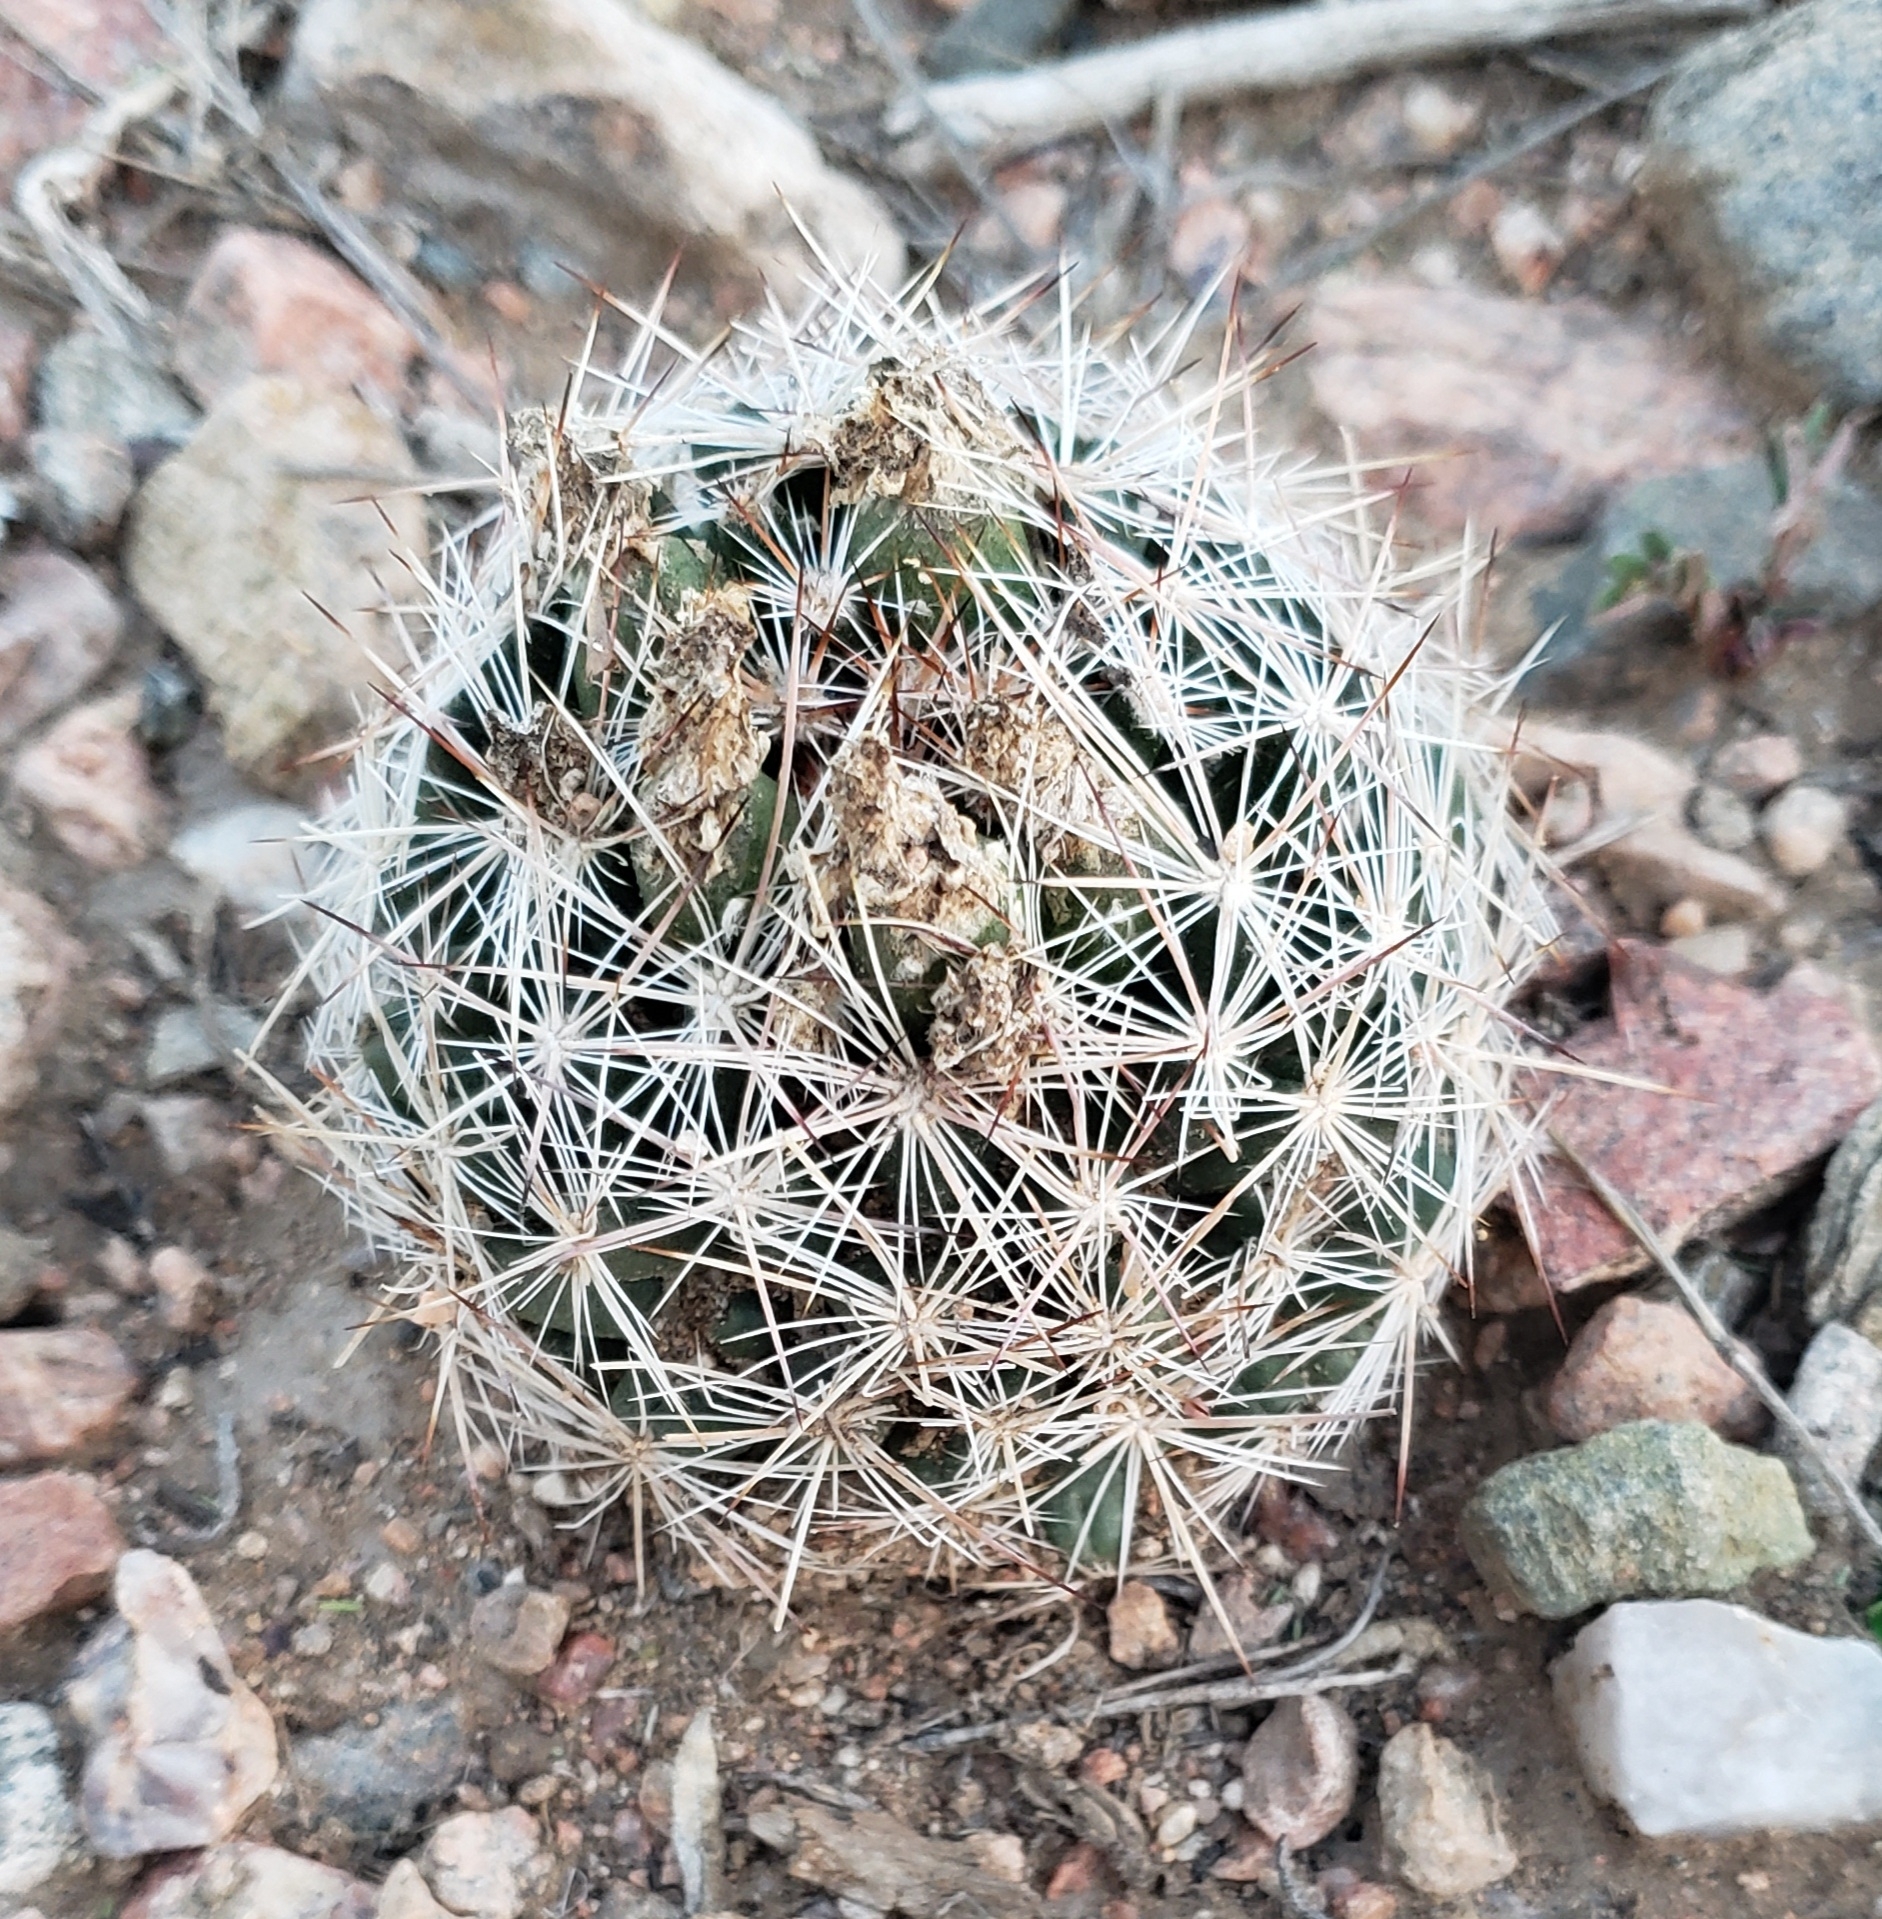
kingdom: Plantae
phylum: Tracheophyta
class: Magnoliopsida
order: Caryophyllales
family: Cactaceae
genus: Pelecyphora
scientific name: Pelecyphora vivipara
